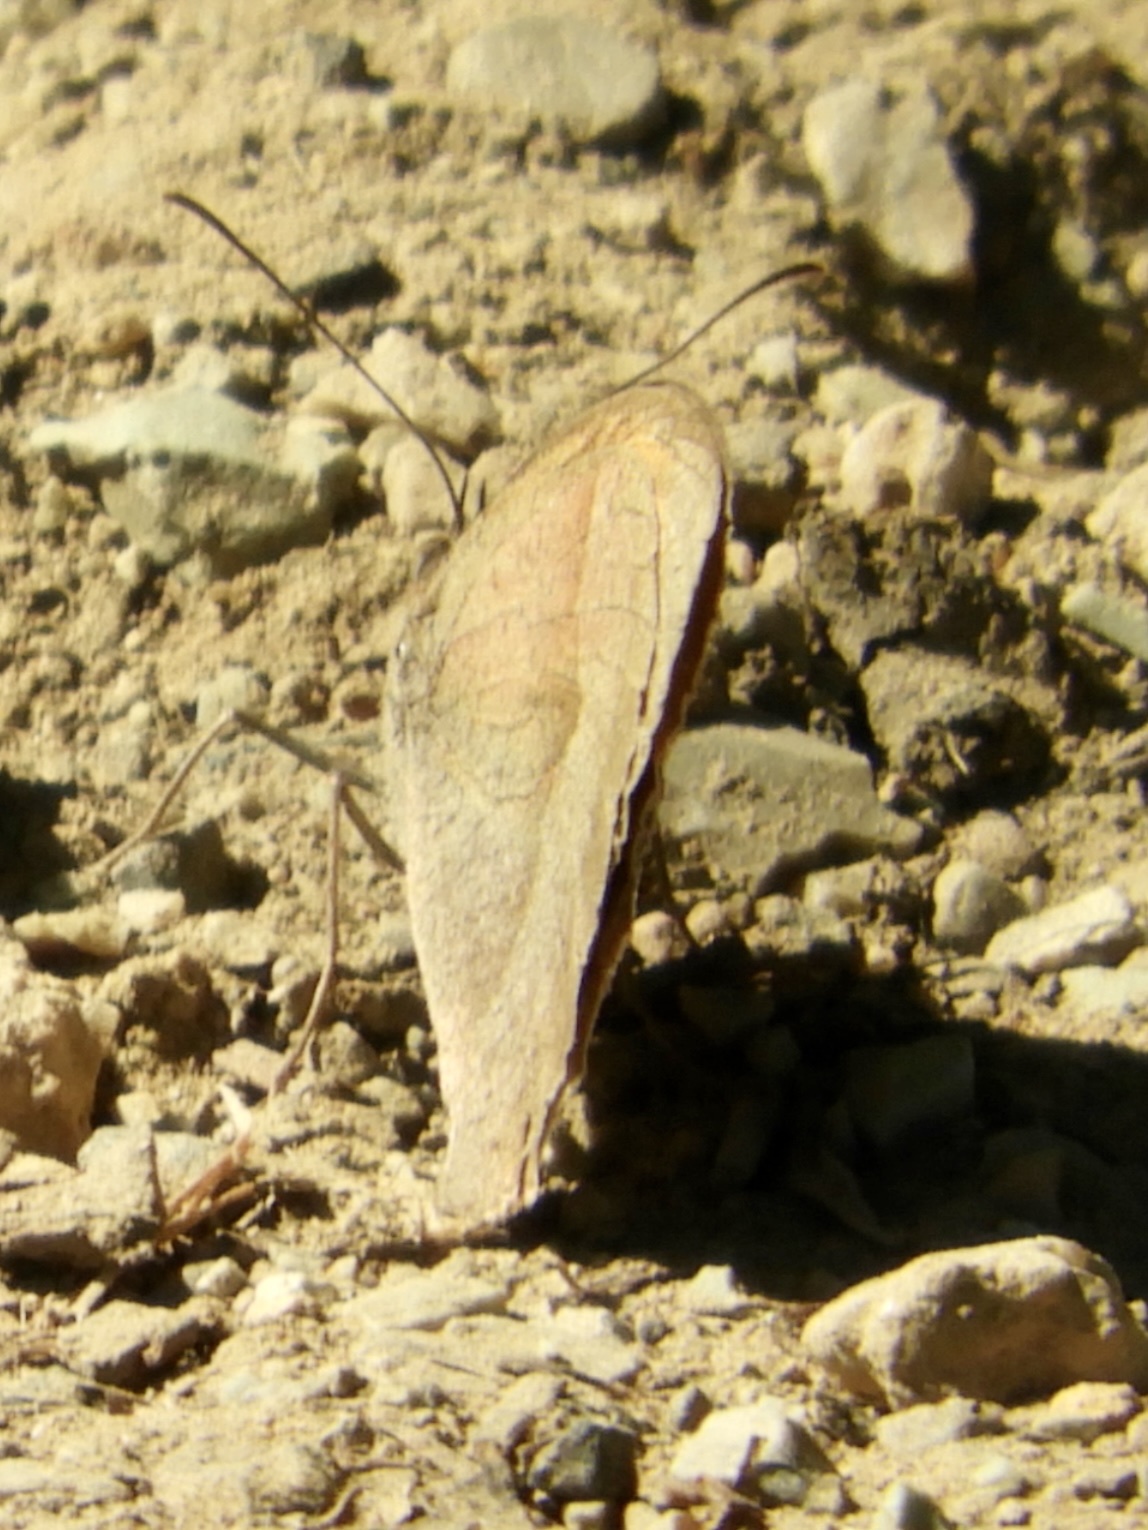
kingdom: Animalia
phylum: Arthropoda
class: Insecta
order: Lepidoptera
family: Nymphalidae
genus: Maniola
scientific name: Maniola jurtina
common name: Meadow brown
